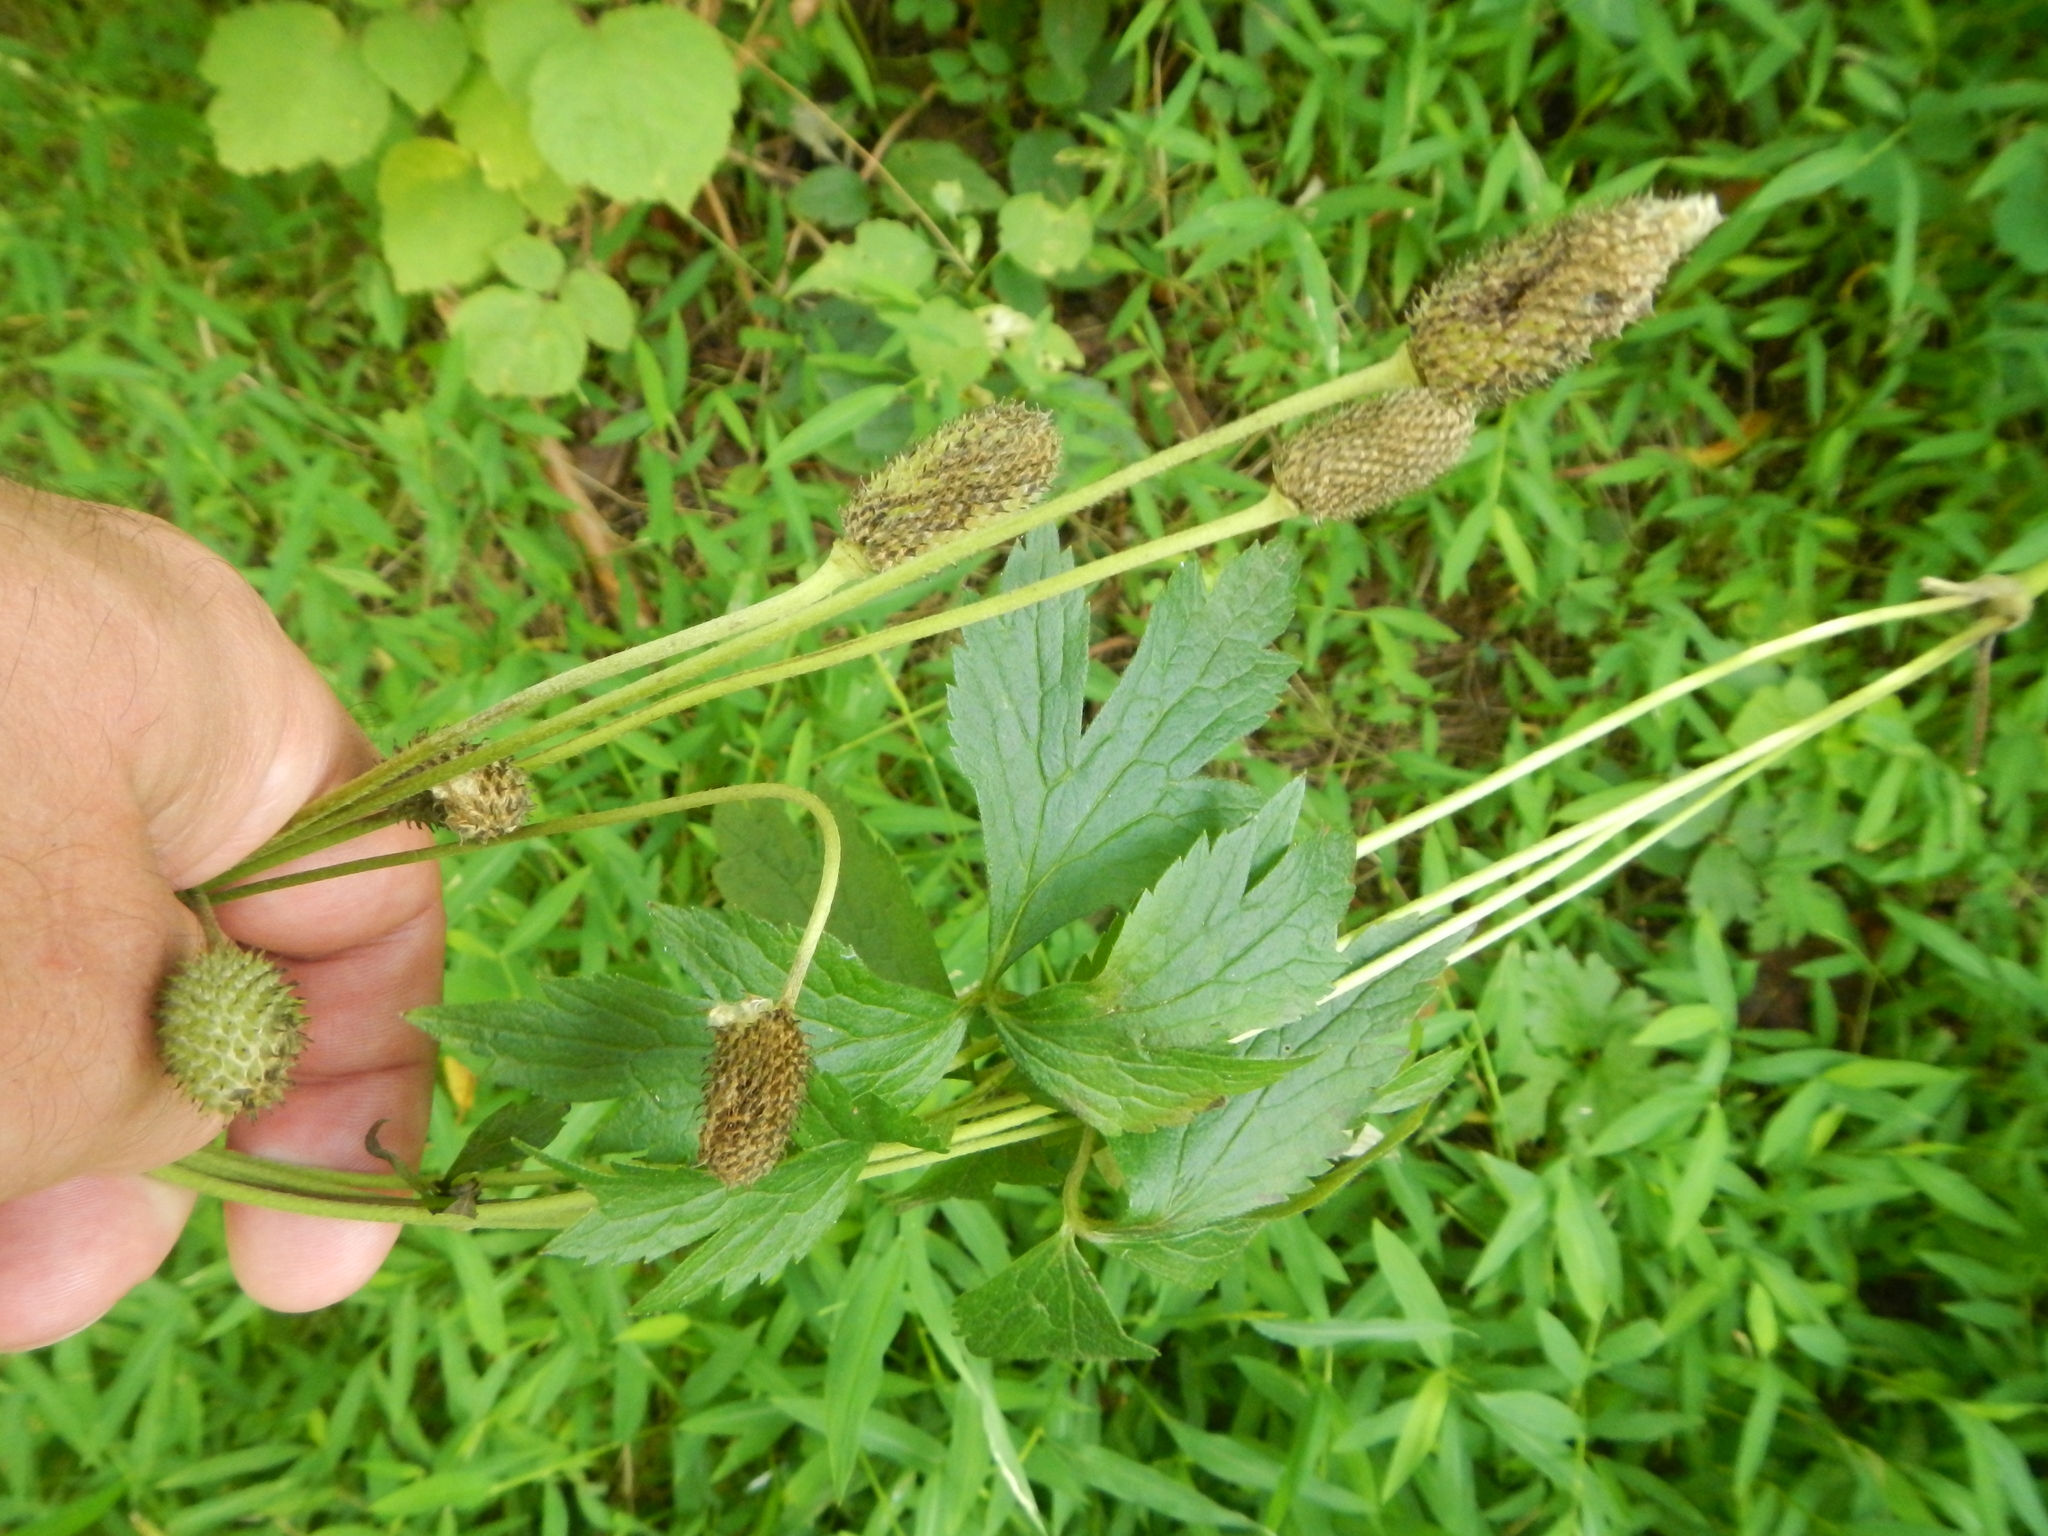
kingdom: Plantae
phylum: Tracheophyta
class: Magnoliopsida
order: Ranunculales
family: Ranunculaceae
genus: Anemone
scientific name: Anemone virginiana
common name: Tall anemone
